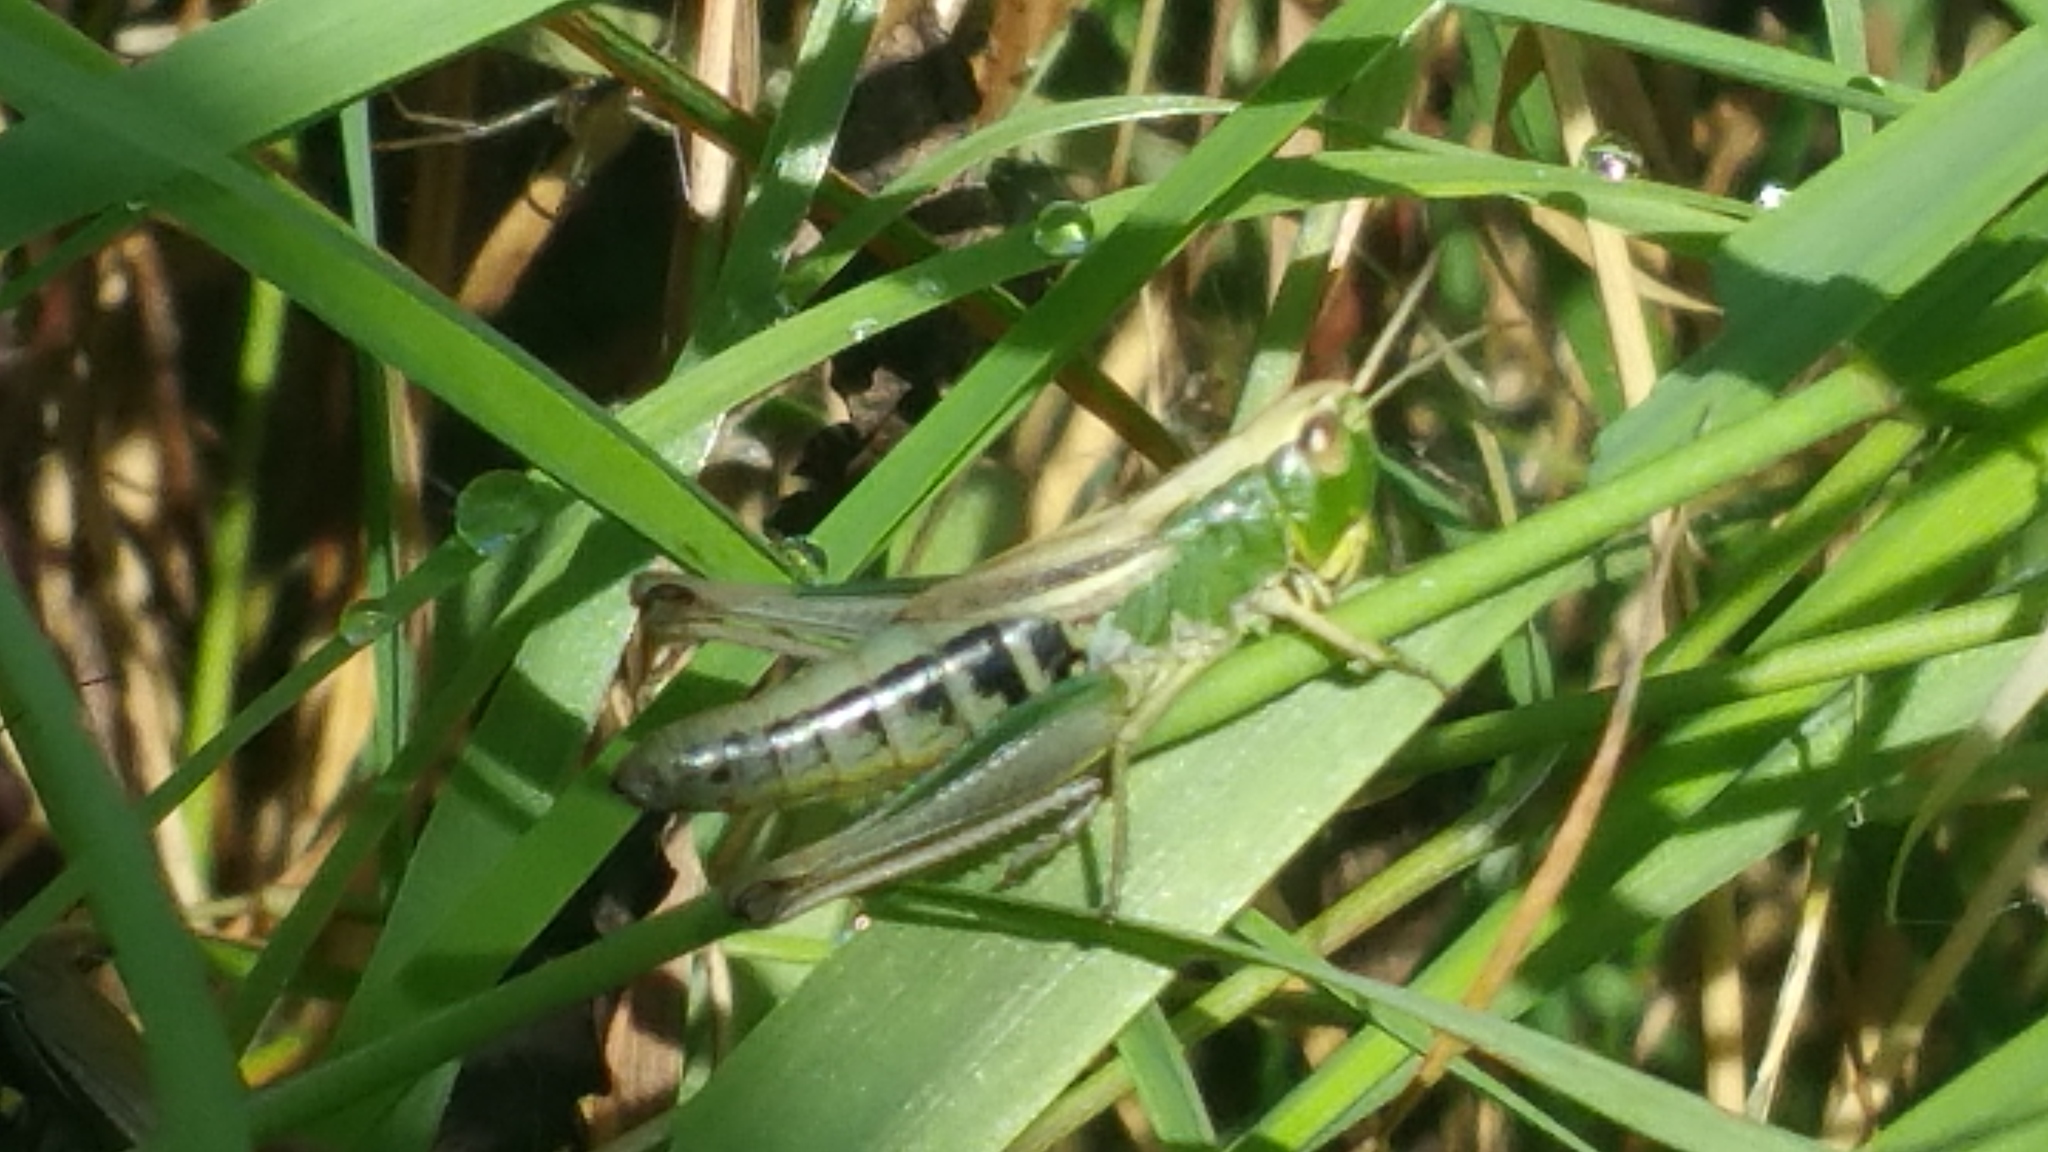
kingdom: Animalia
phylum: Arthropoda
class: Insecta
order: Orthoptera
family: Acrididae
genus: Pseudochorthippus
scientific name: Pseudochorthippus parallelus
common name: Meadow grasshopper
